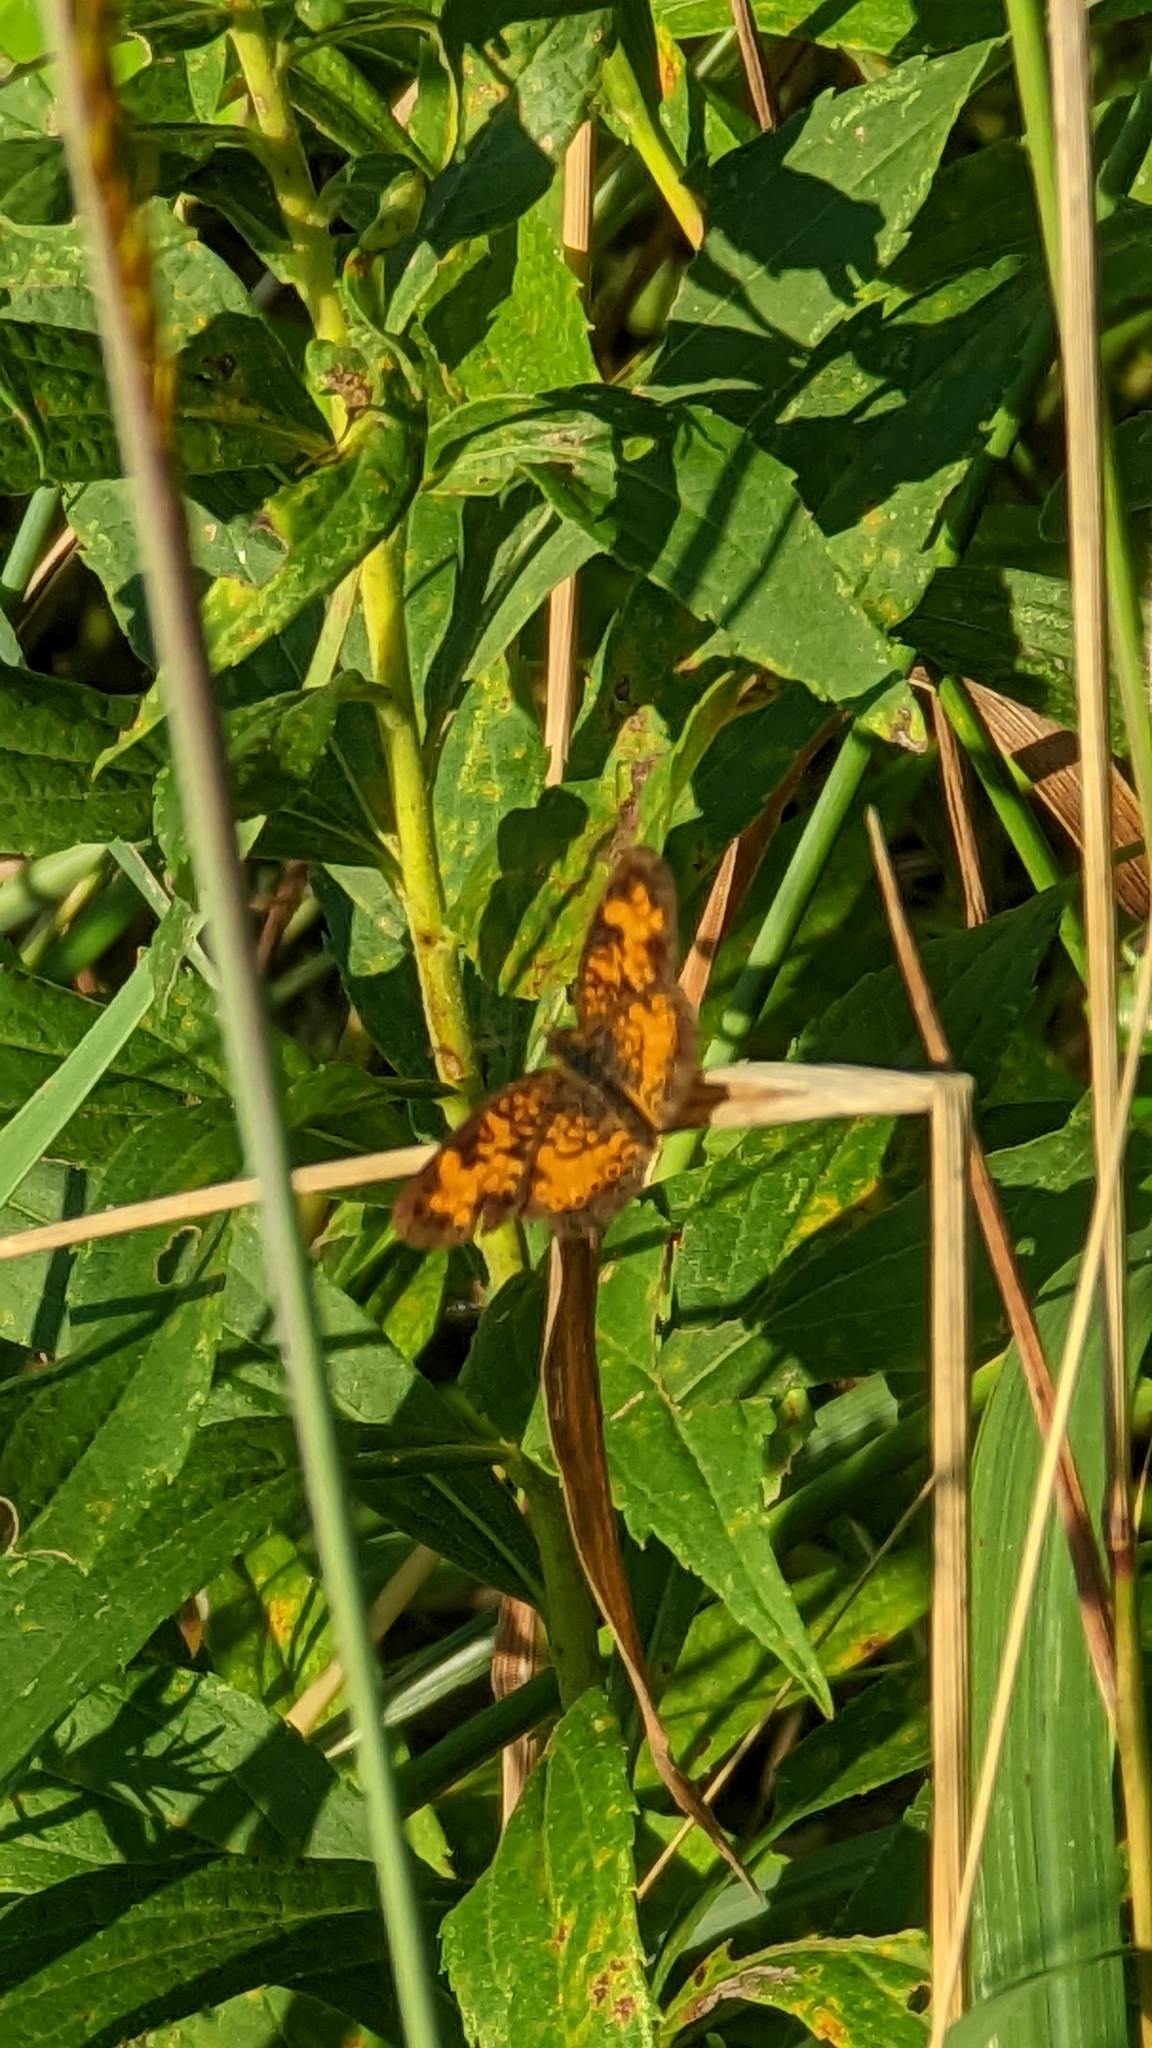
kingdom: Animalia
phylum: Arthropoda
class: Insecta
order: Lepidoptera
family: Nymphalidae
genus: Phyciodes
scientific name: Phyciodes tharos
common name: Pearl crescent
